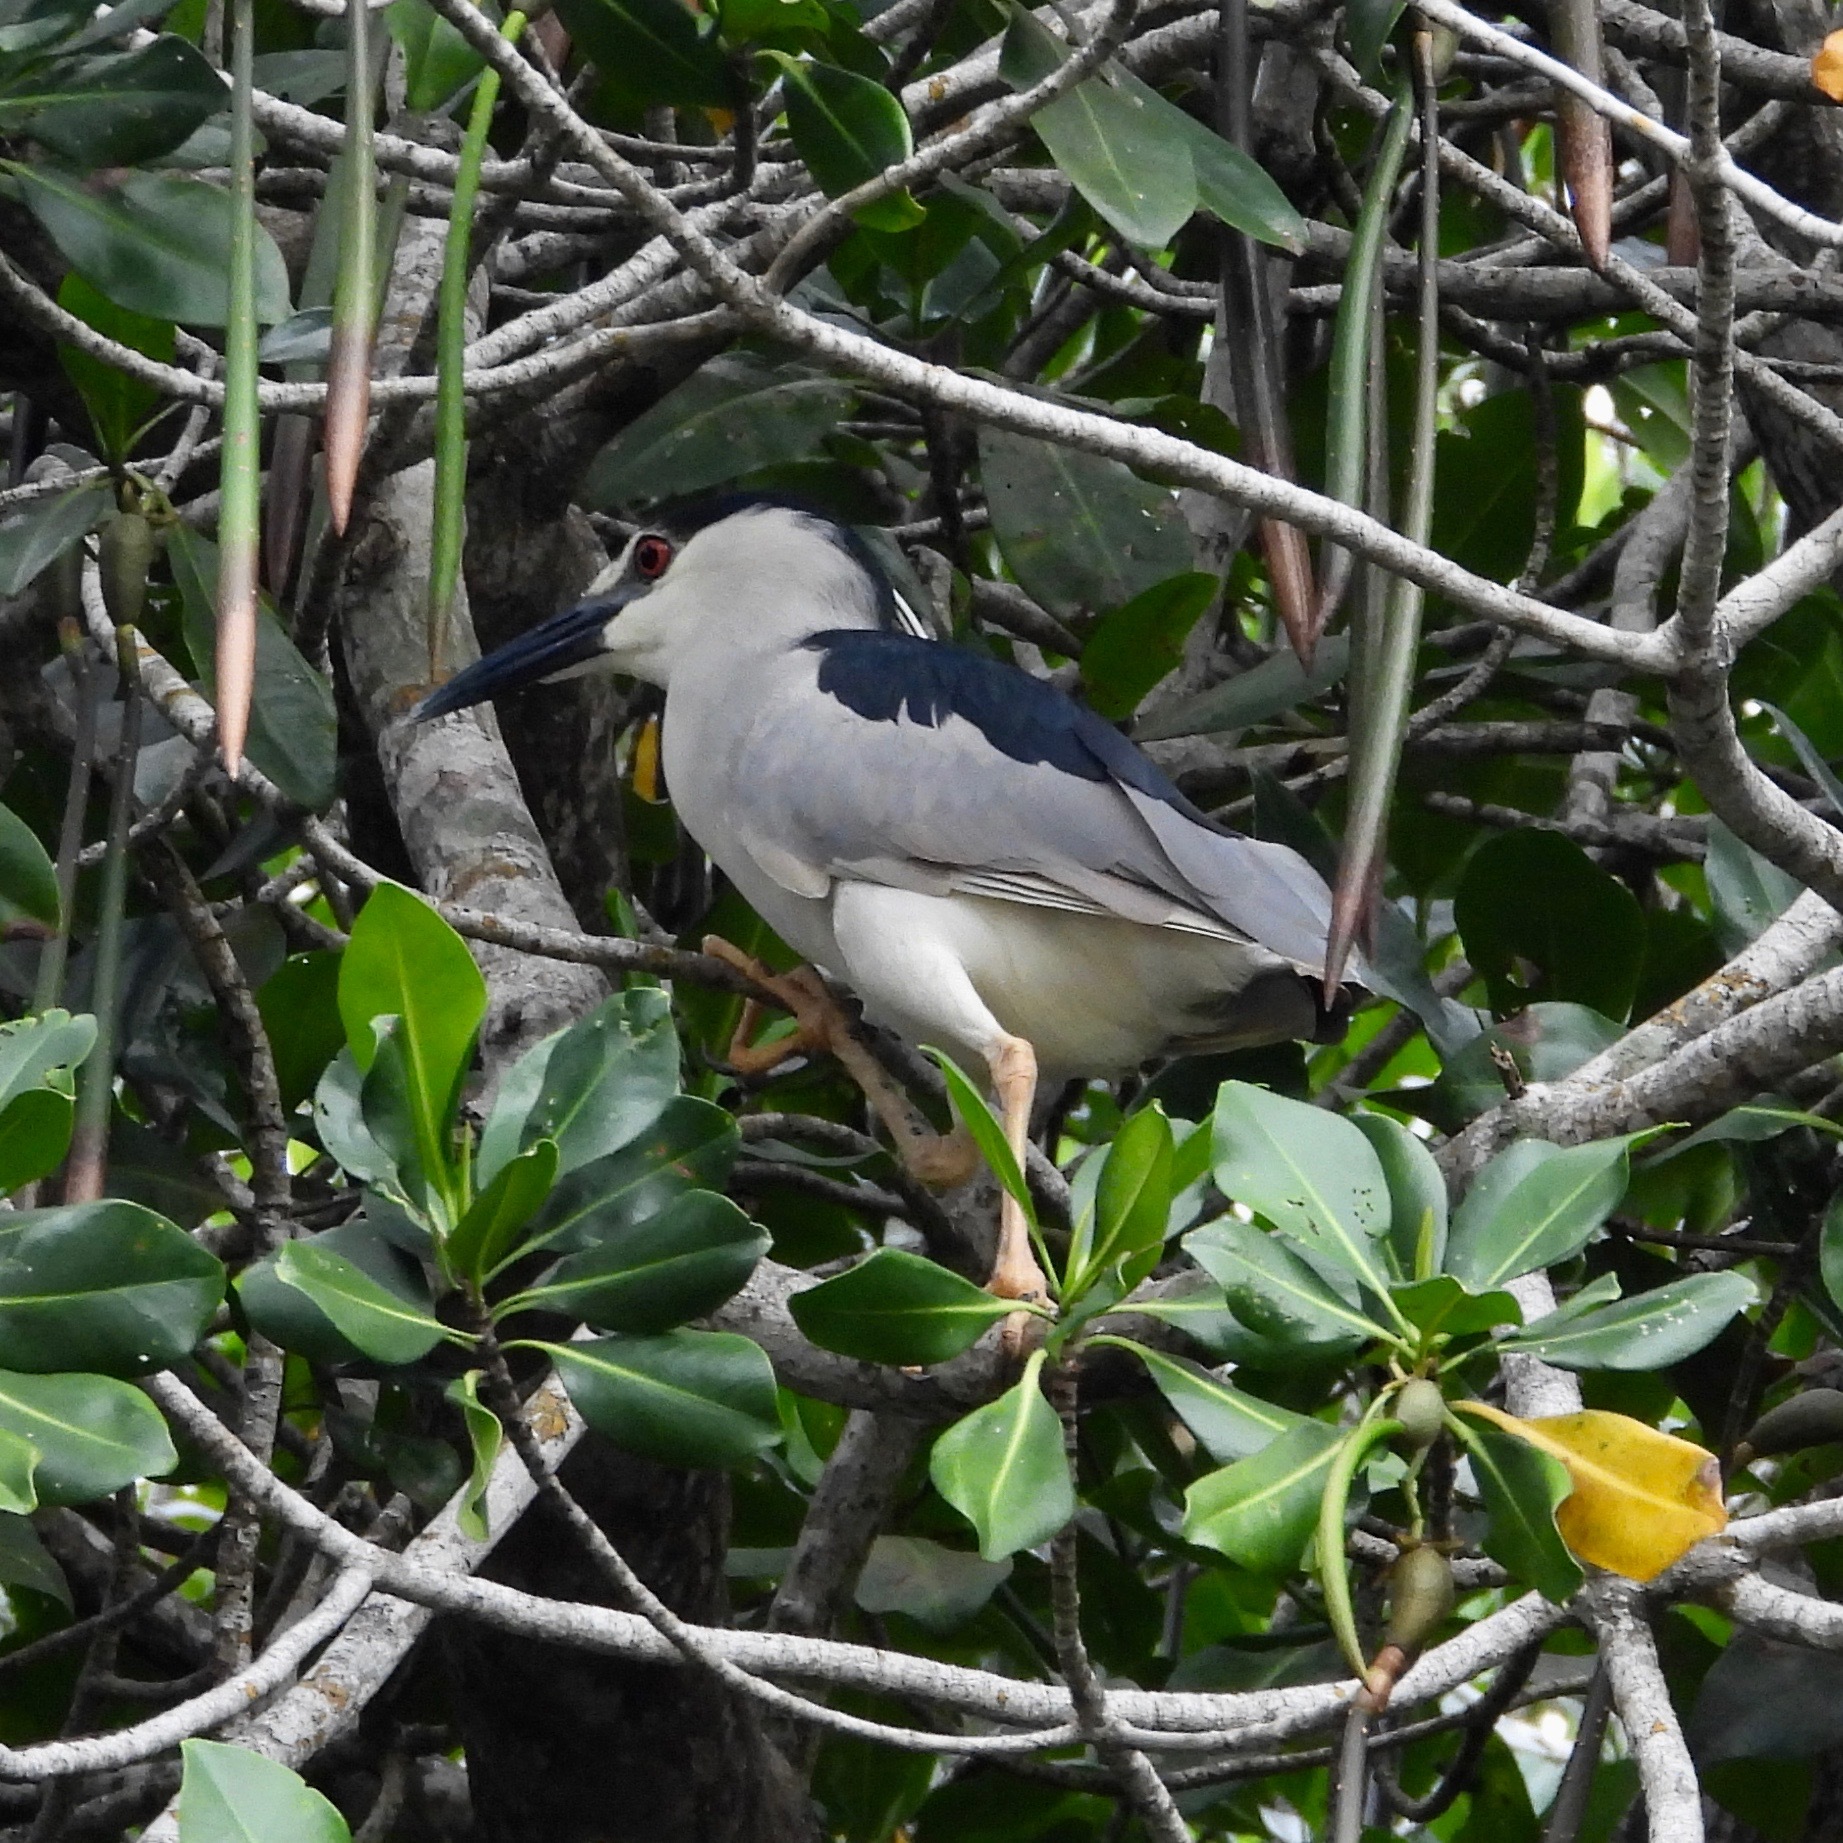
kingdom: Animalia
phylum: Chordata
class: Aves
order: Pelecaniformes
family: Ardeidae
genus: Nycticorax
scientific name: Nycticorax nycticorax
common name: Black-crowned night heron
